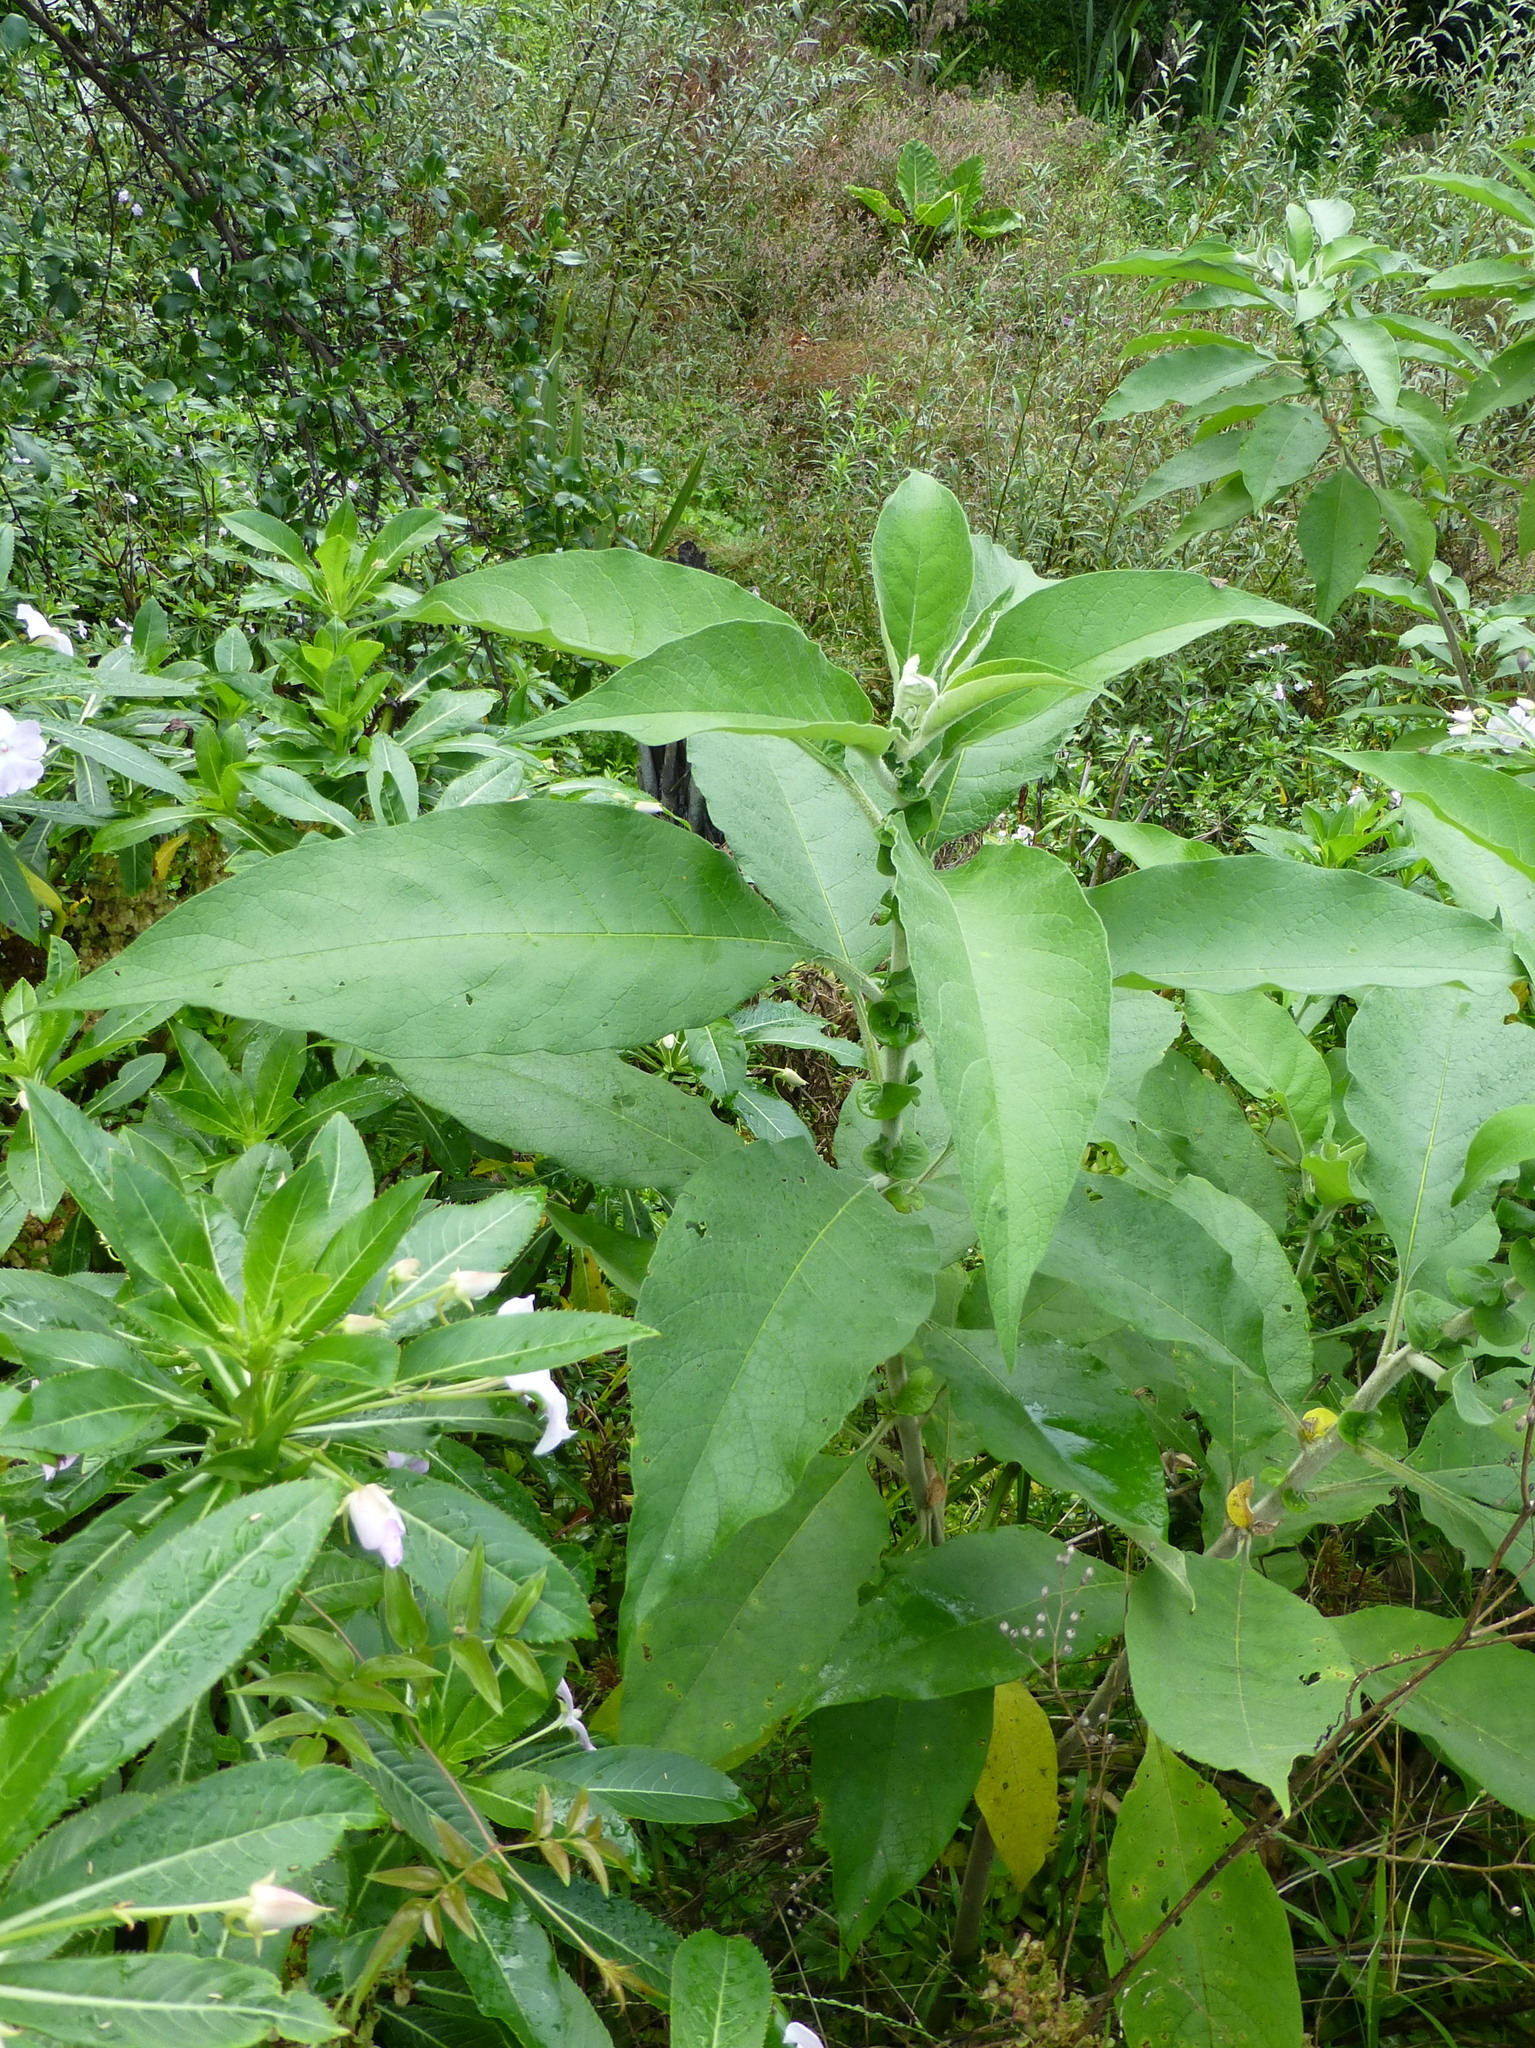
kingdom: Plantae
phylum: Tracheophyta
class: Magnoliopsida
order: Solanales
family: Solanaceae
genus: Solanum
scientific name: Solanum mauritianum
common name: Earleaf nightshade
